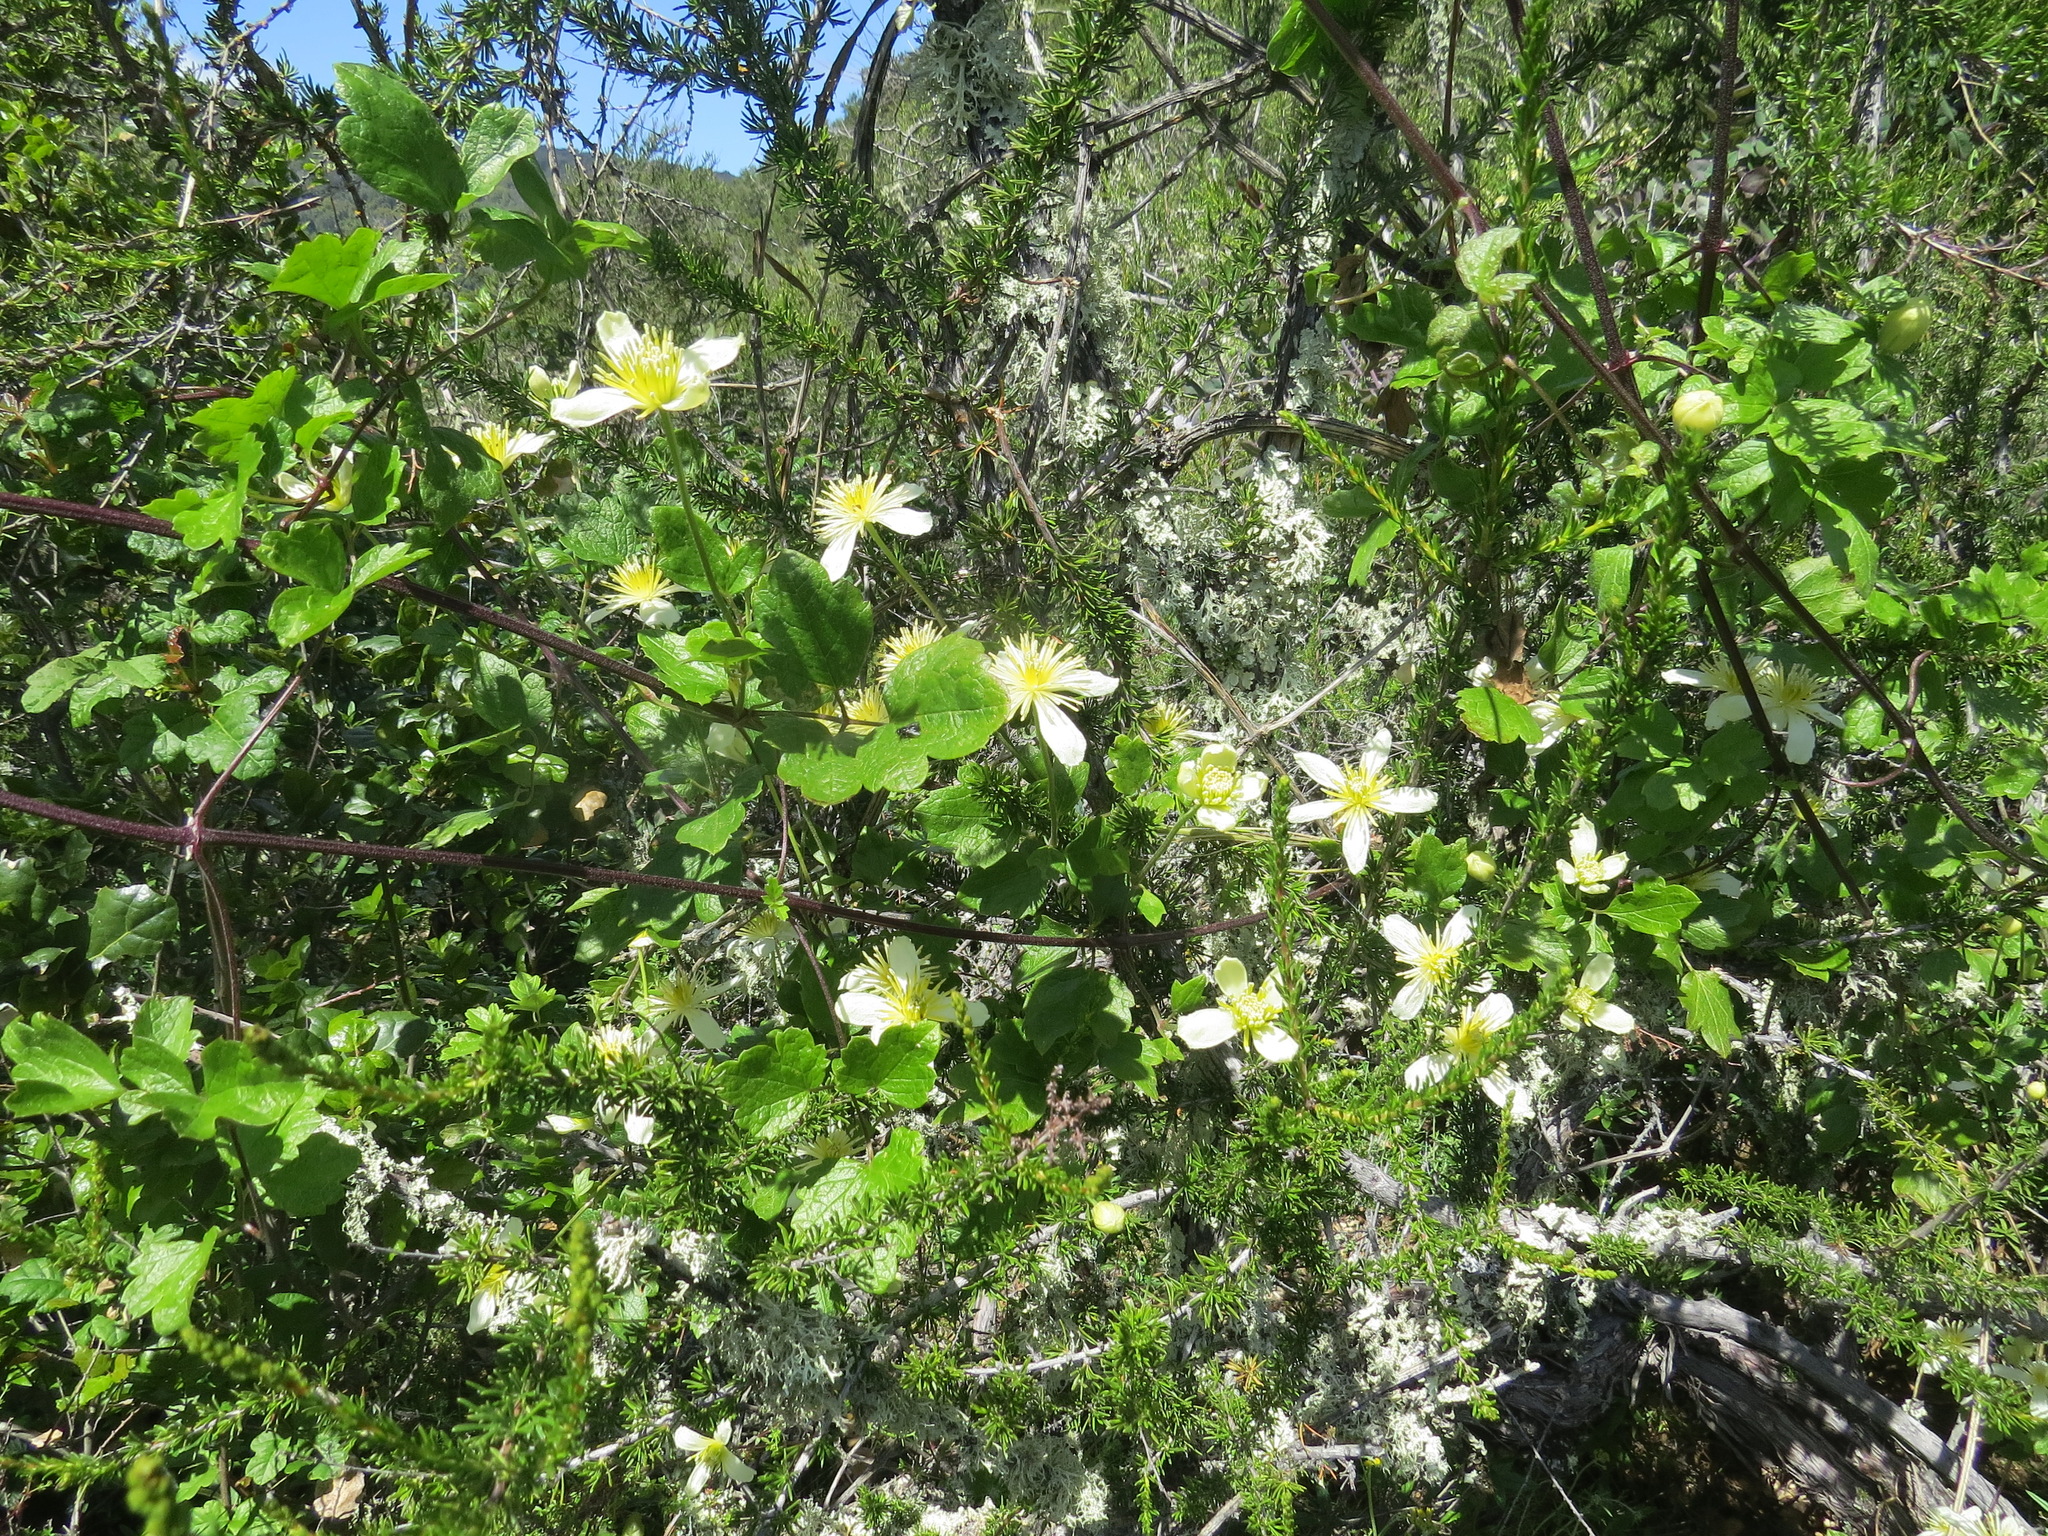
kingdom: Plantae
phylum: Tracheophyta
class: Magnoliopsida
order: Ranunculales
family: Ranunculaceae
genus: Clematis
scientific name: Clematis lasiantha
